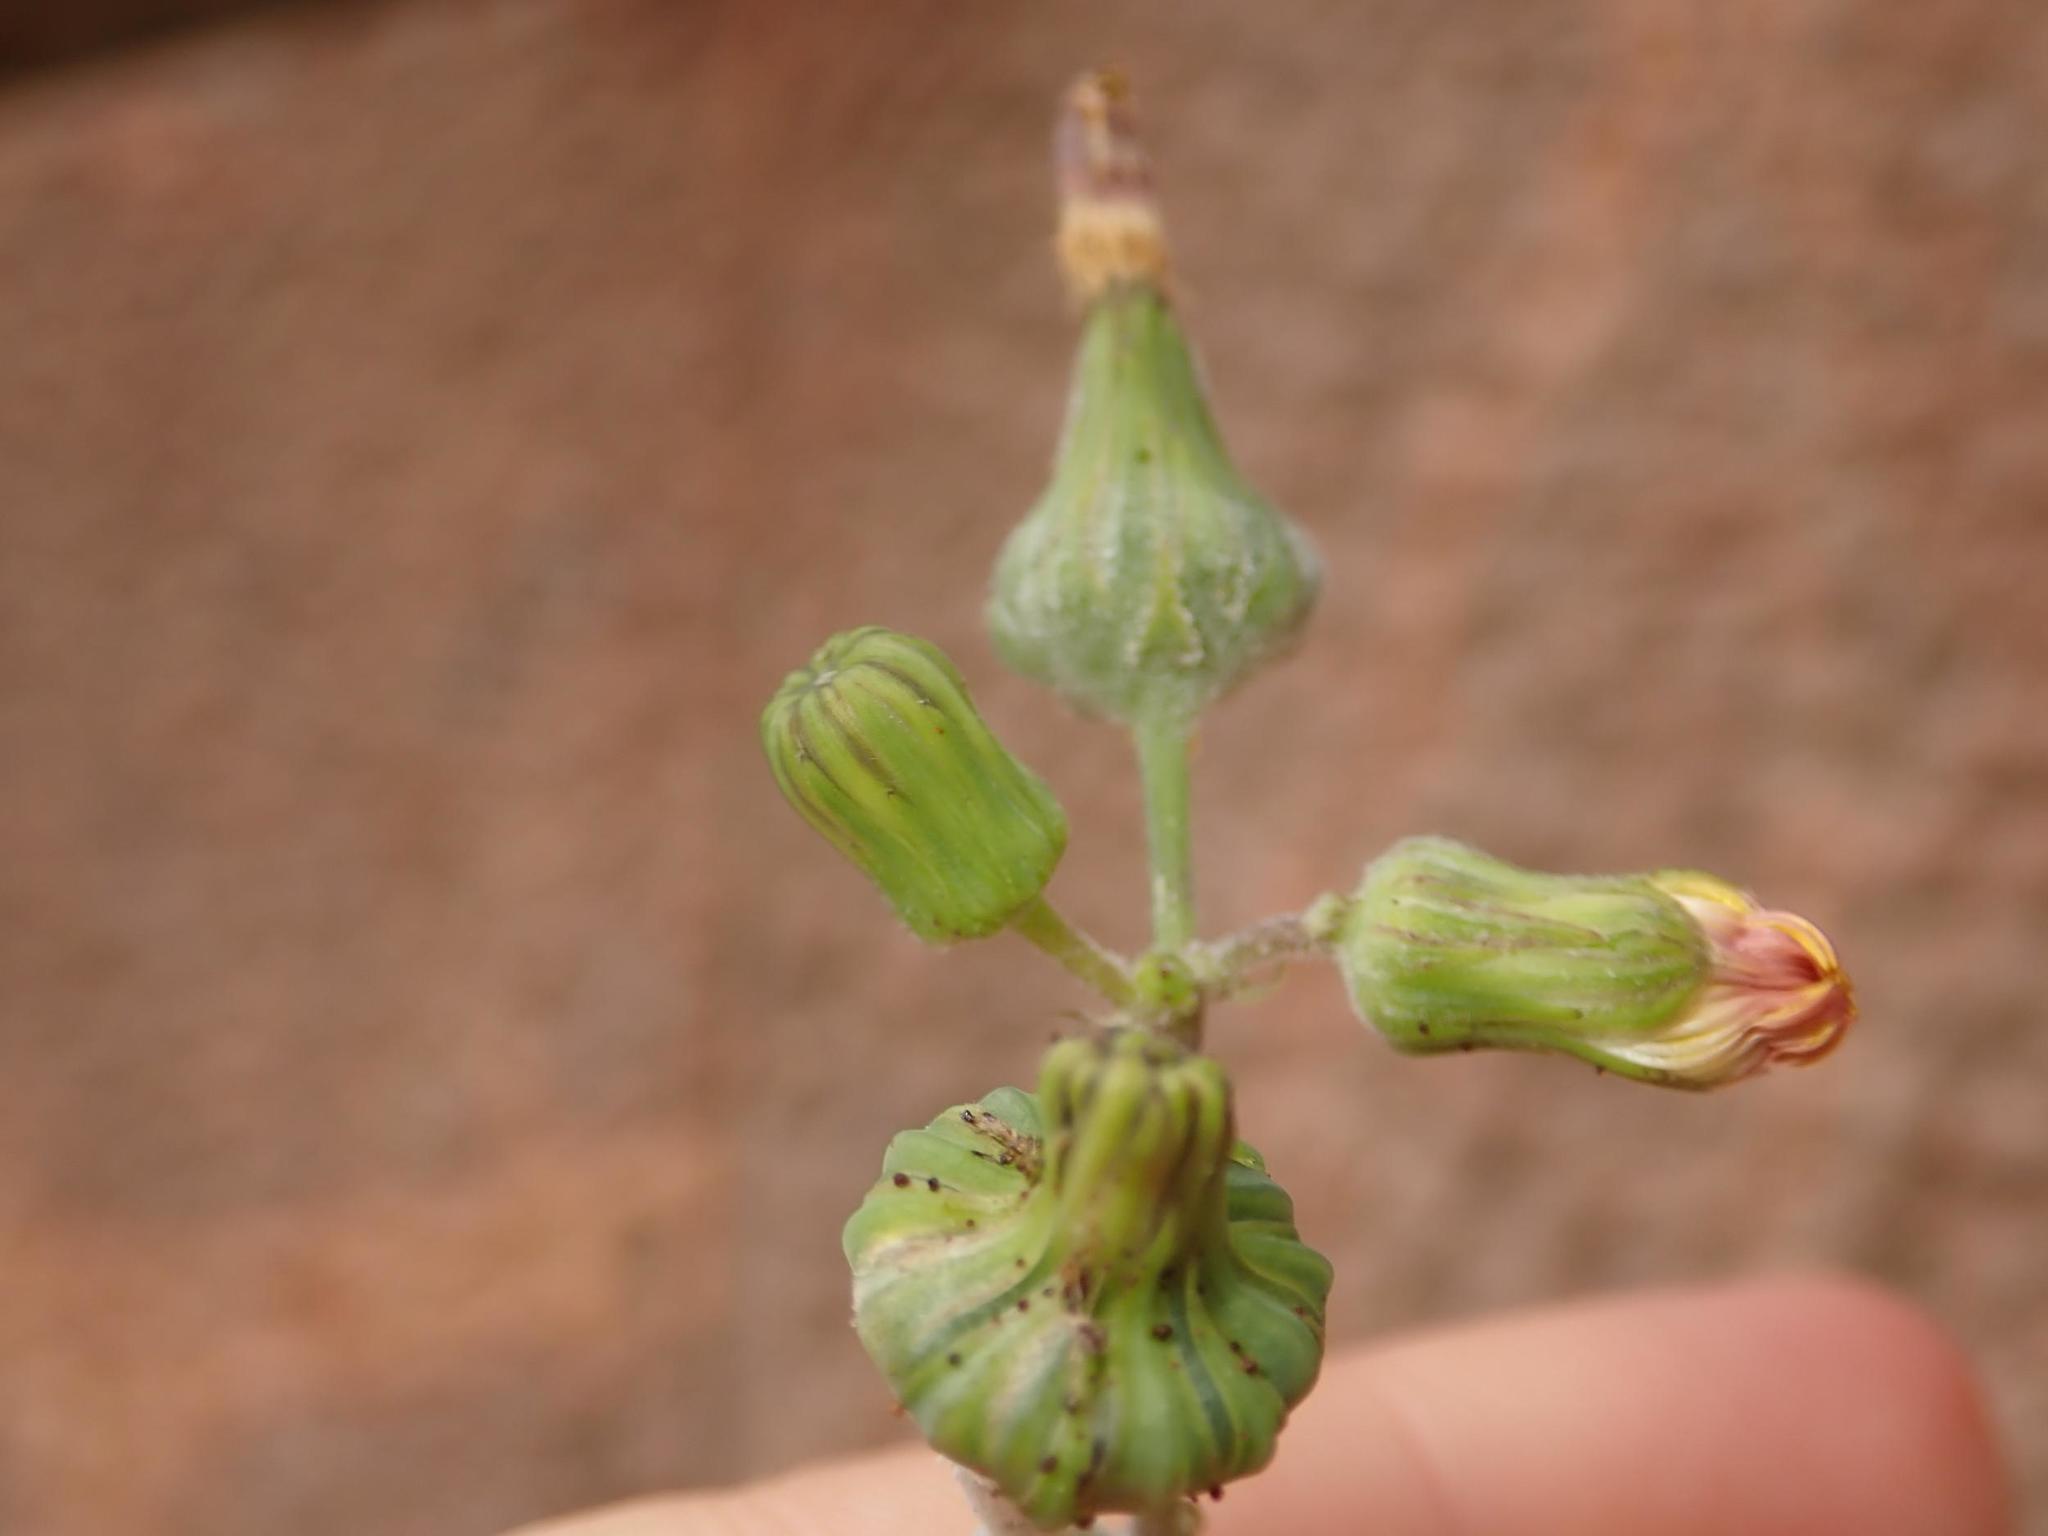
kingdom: Plantae
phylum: Tracheophyta
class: Magnoliopsida
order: Asterales
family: Asteraceae
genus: Sonchus
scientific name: Sonchus oleraceus
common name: Common sowthistle
